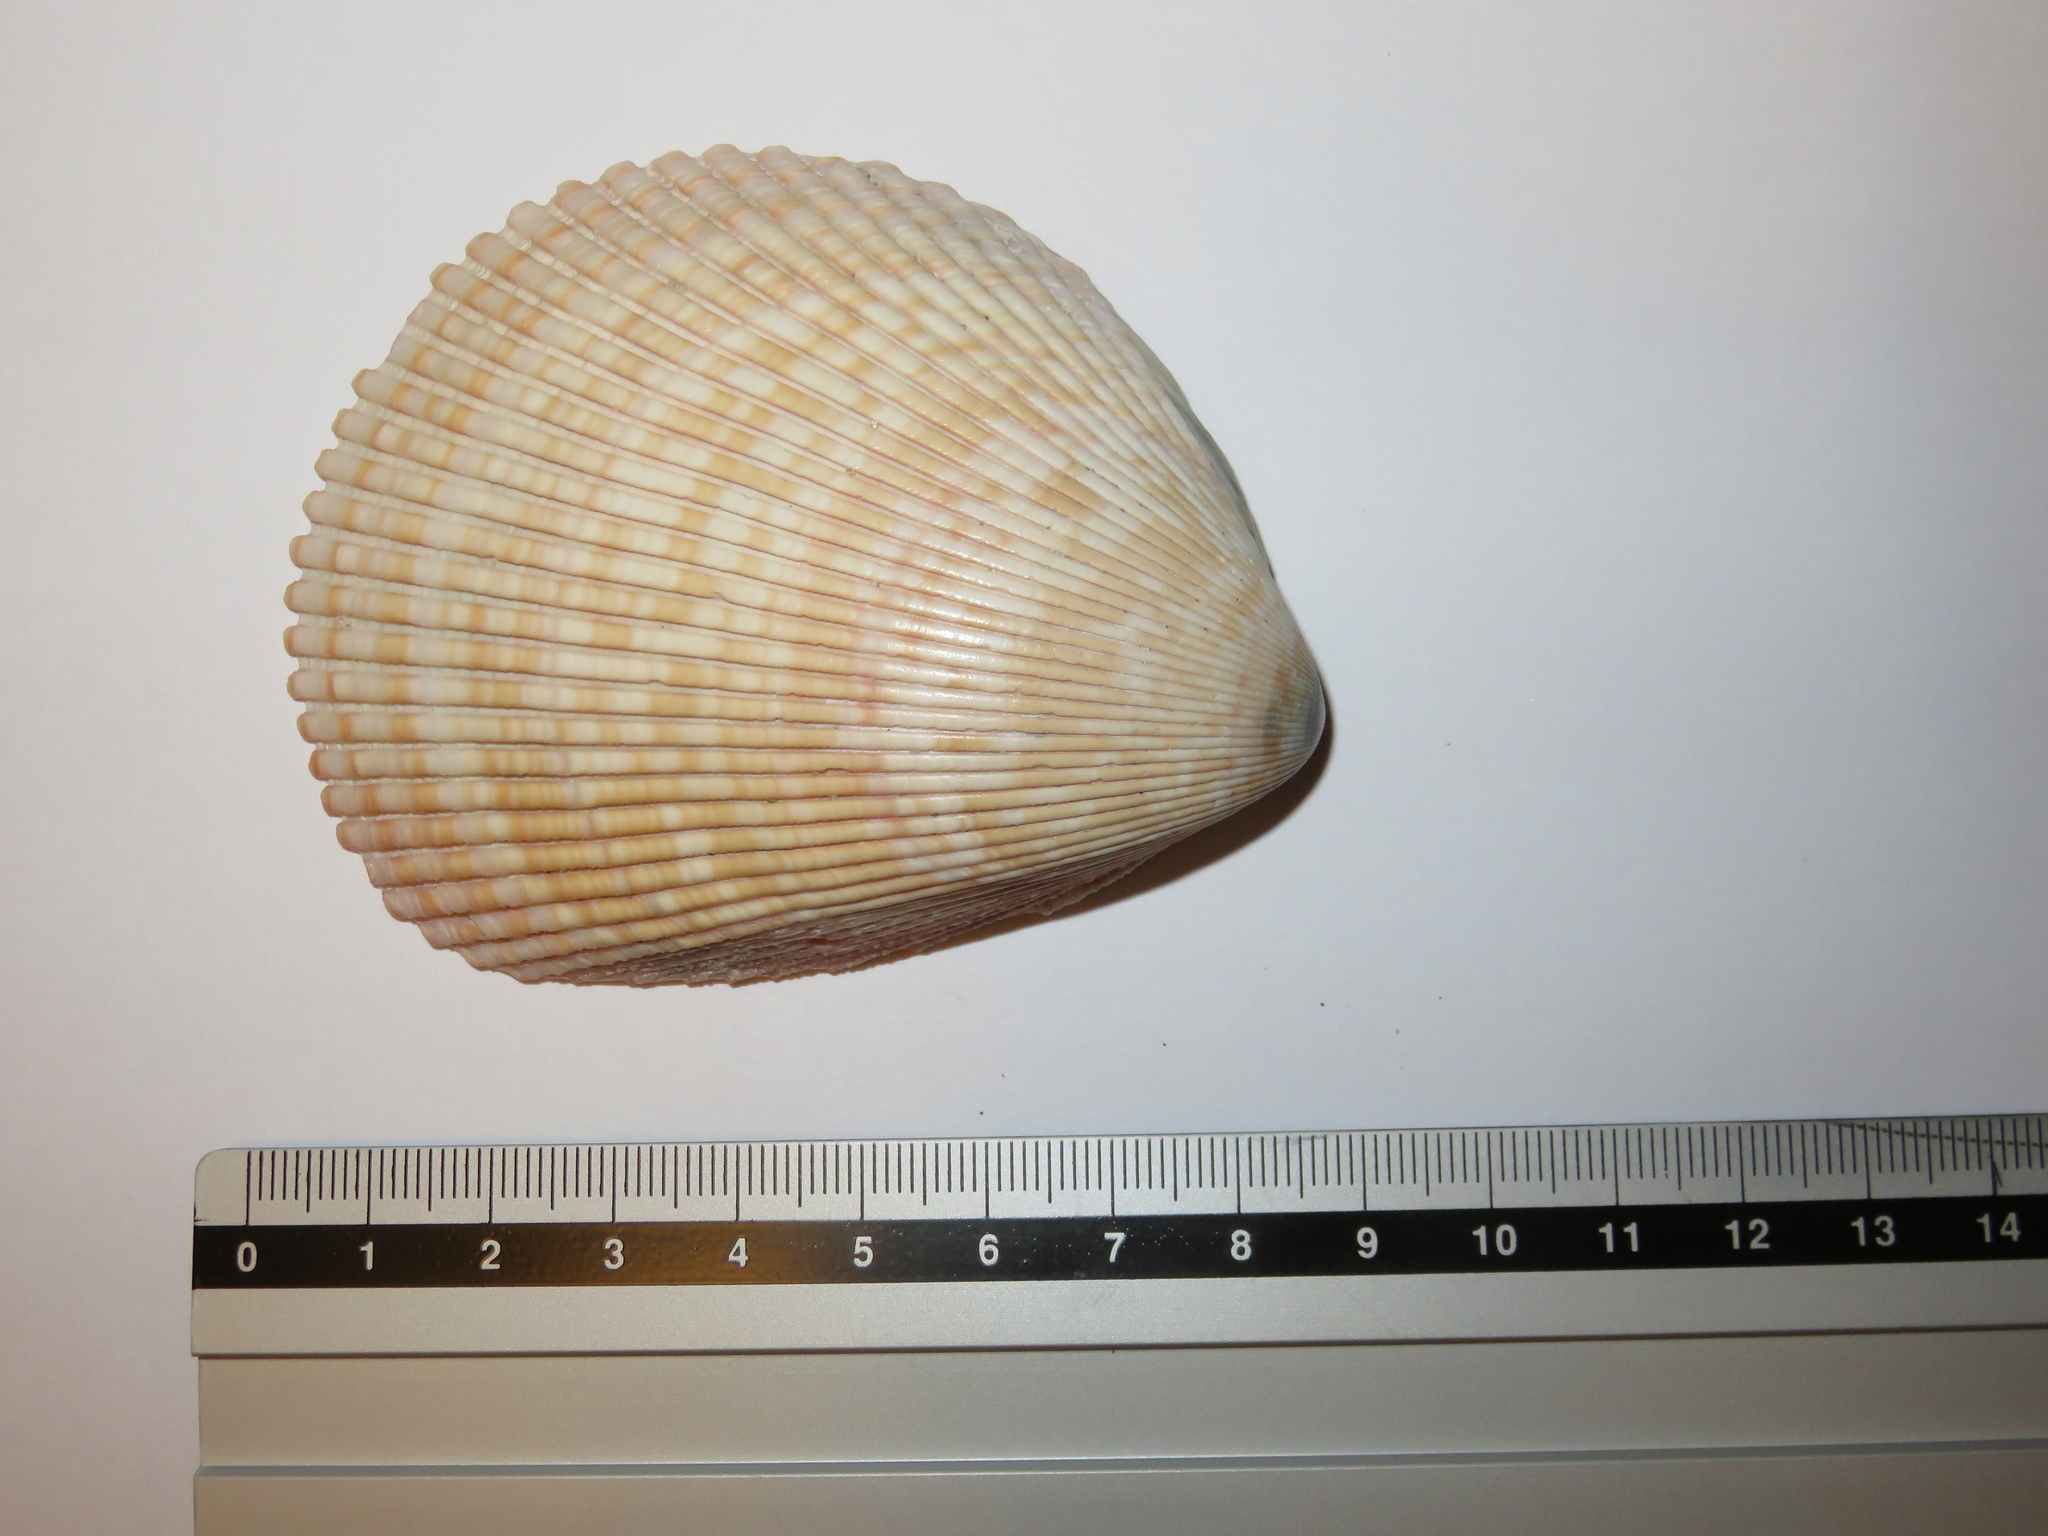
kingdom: Animalia
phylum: Mollusca
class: Bivalvia
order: Cardiida
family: Cardiidae
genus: Vasticardium
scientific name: Vasticardium enode
